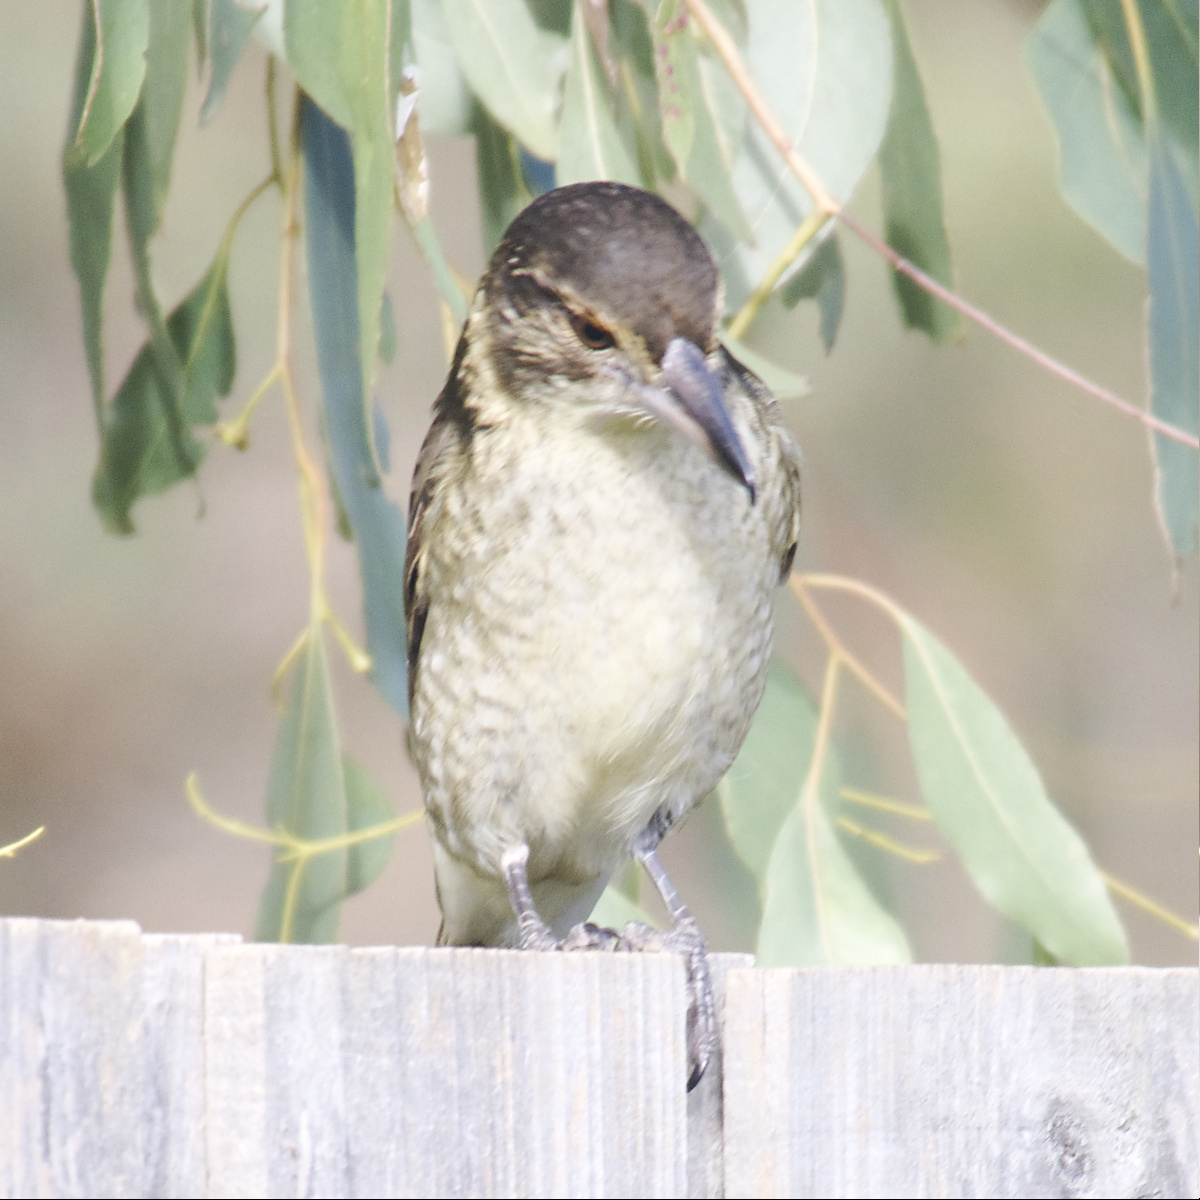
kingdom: Animalia
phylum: Chordata
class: Aves
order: Passeriformes
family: Cracticidae
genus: Cracticus
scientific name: Cracticus torquatus
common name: Grey butcherbird
